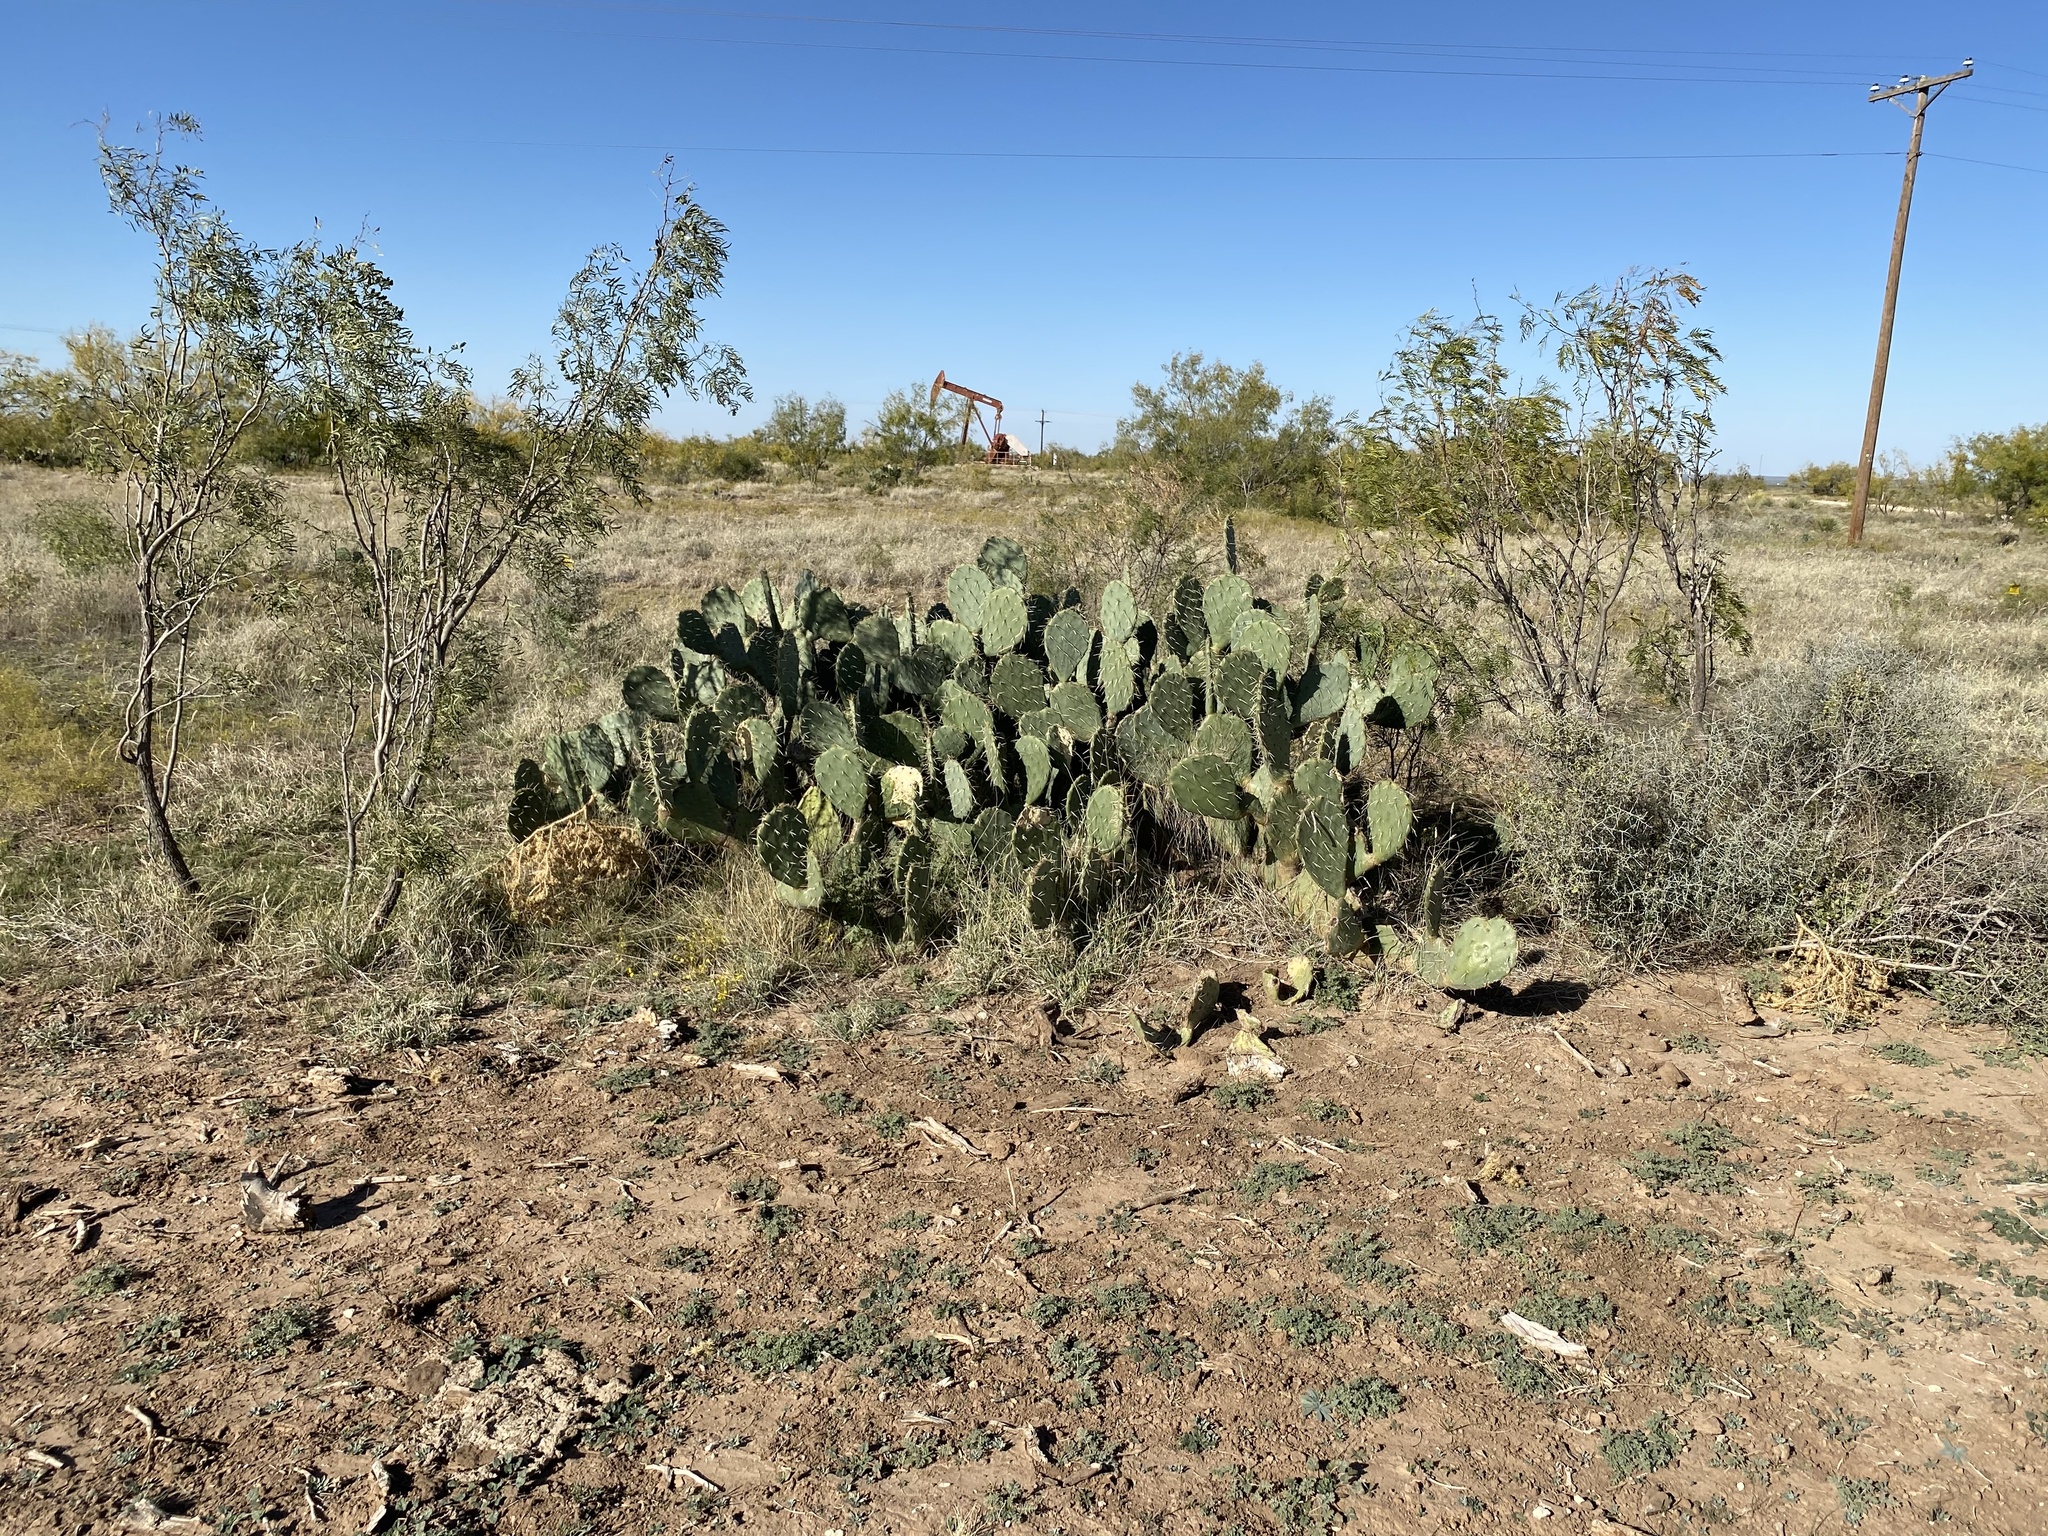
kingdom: Plantae
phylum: Tracheophyta
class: Magnoliopsida
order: Caryophyllales
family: Cactaceae
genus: Opuntia
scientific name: Opuntia engelmannii
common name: Cactus-apple
